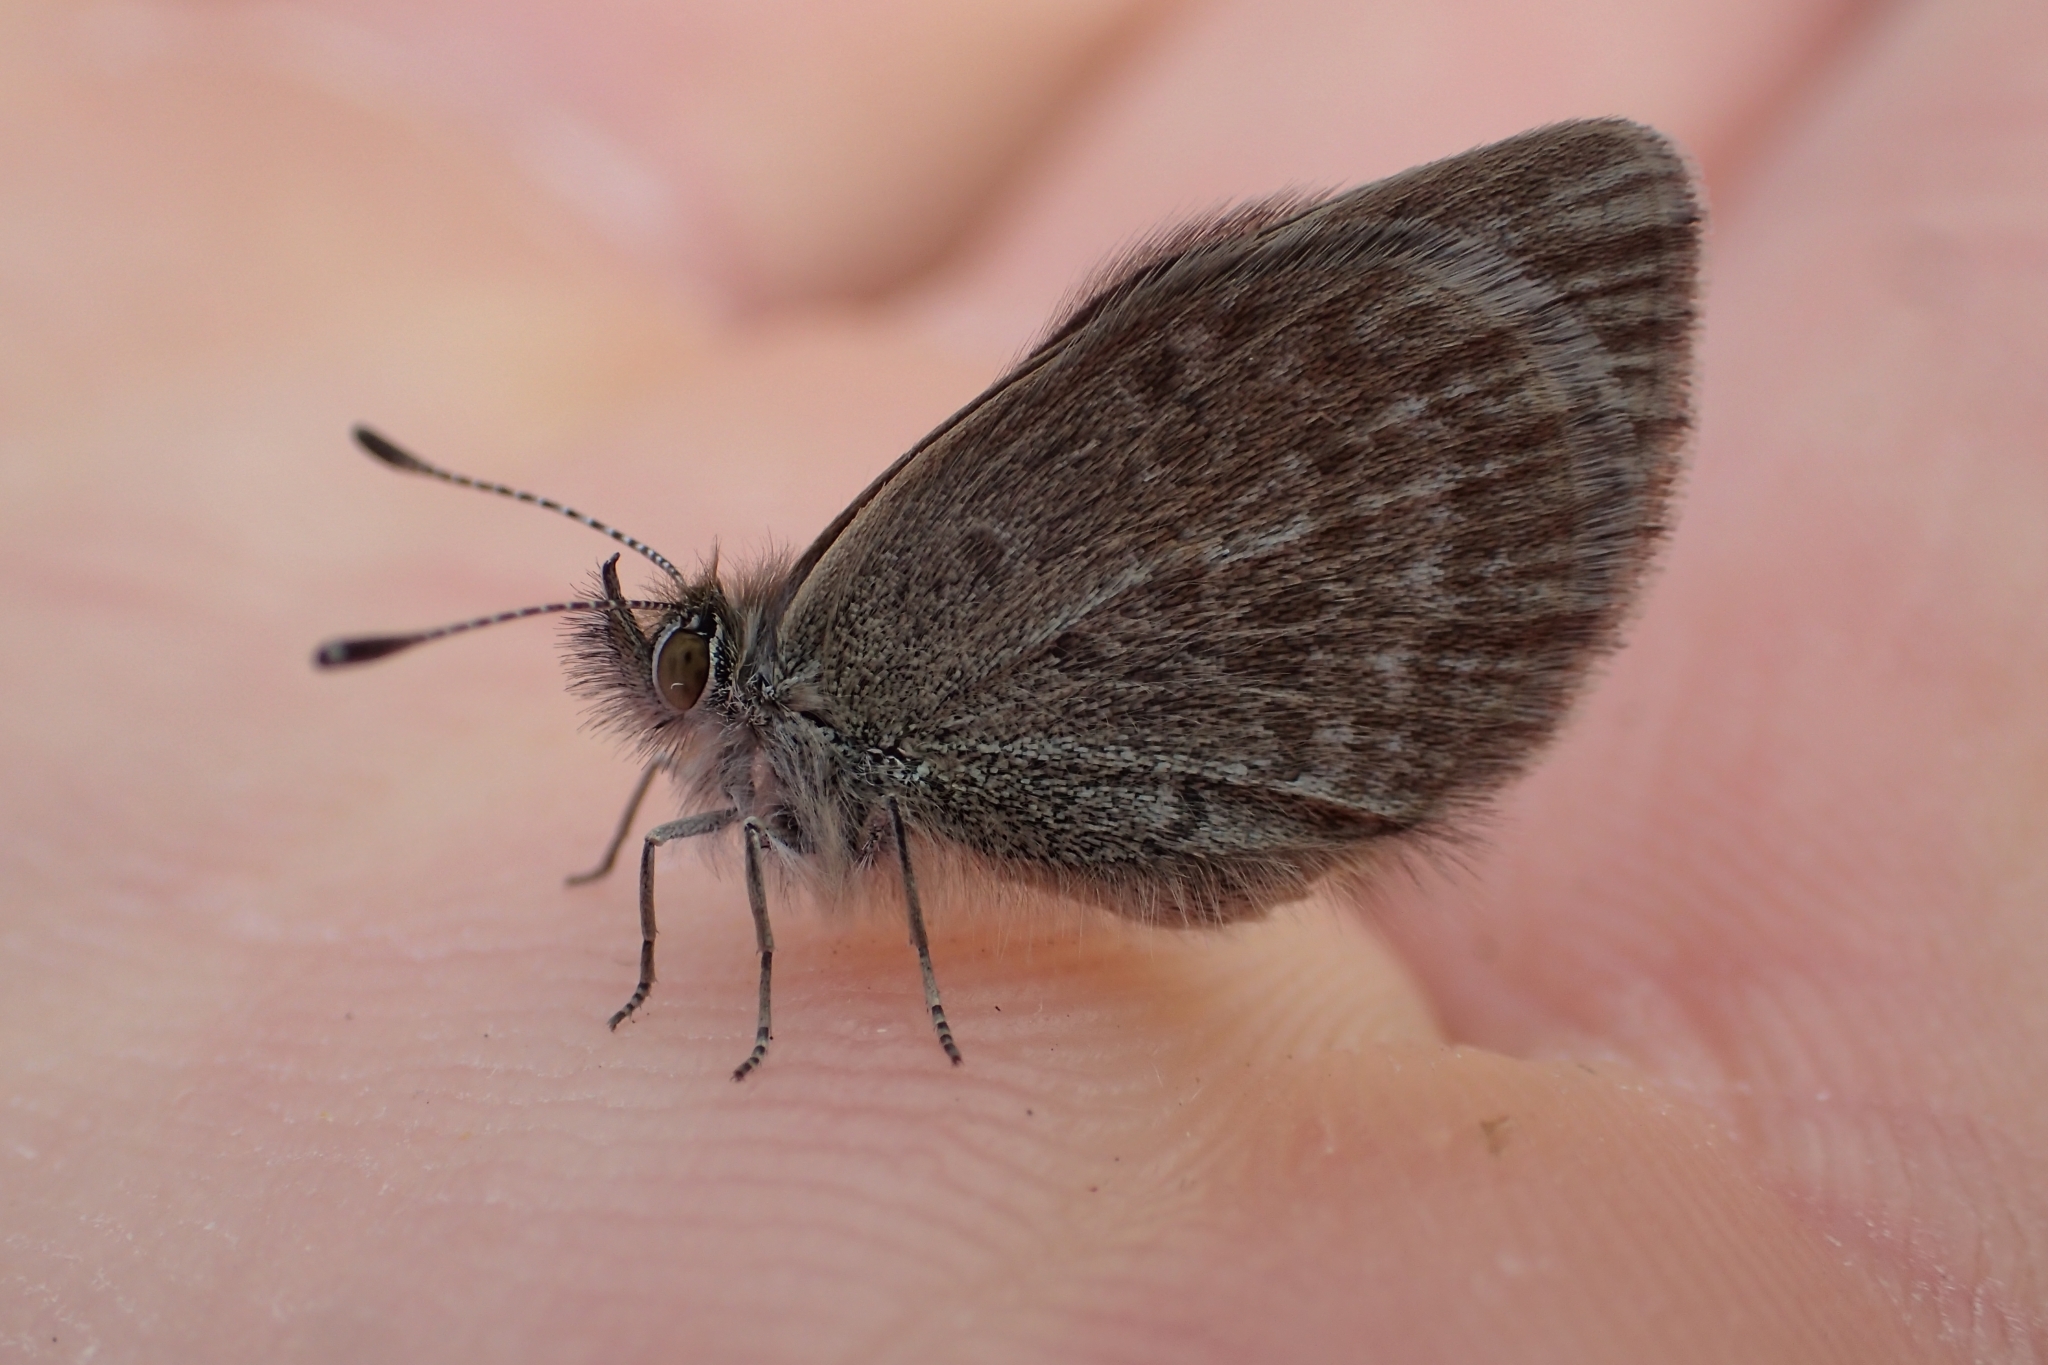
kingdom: Animalia
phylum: Arthropoda
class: Insecta
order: Lepidoptera
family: Lycaenidae
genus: Zizina
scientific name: Zizina labradus
